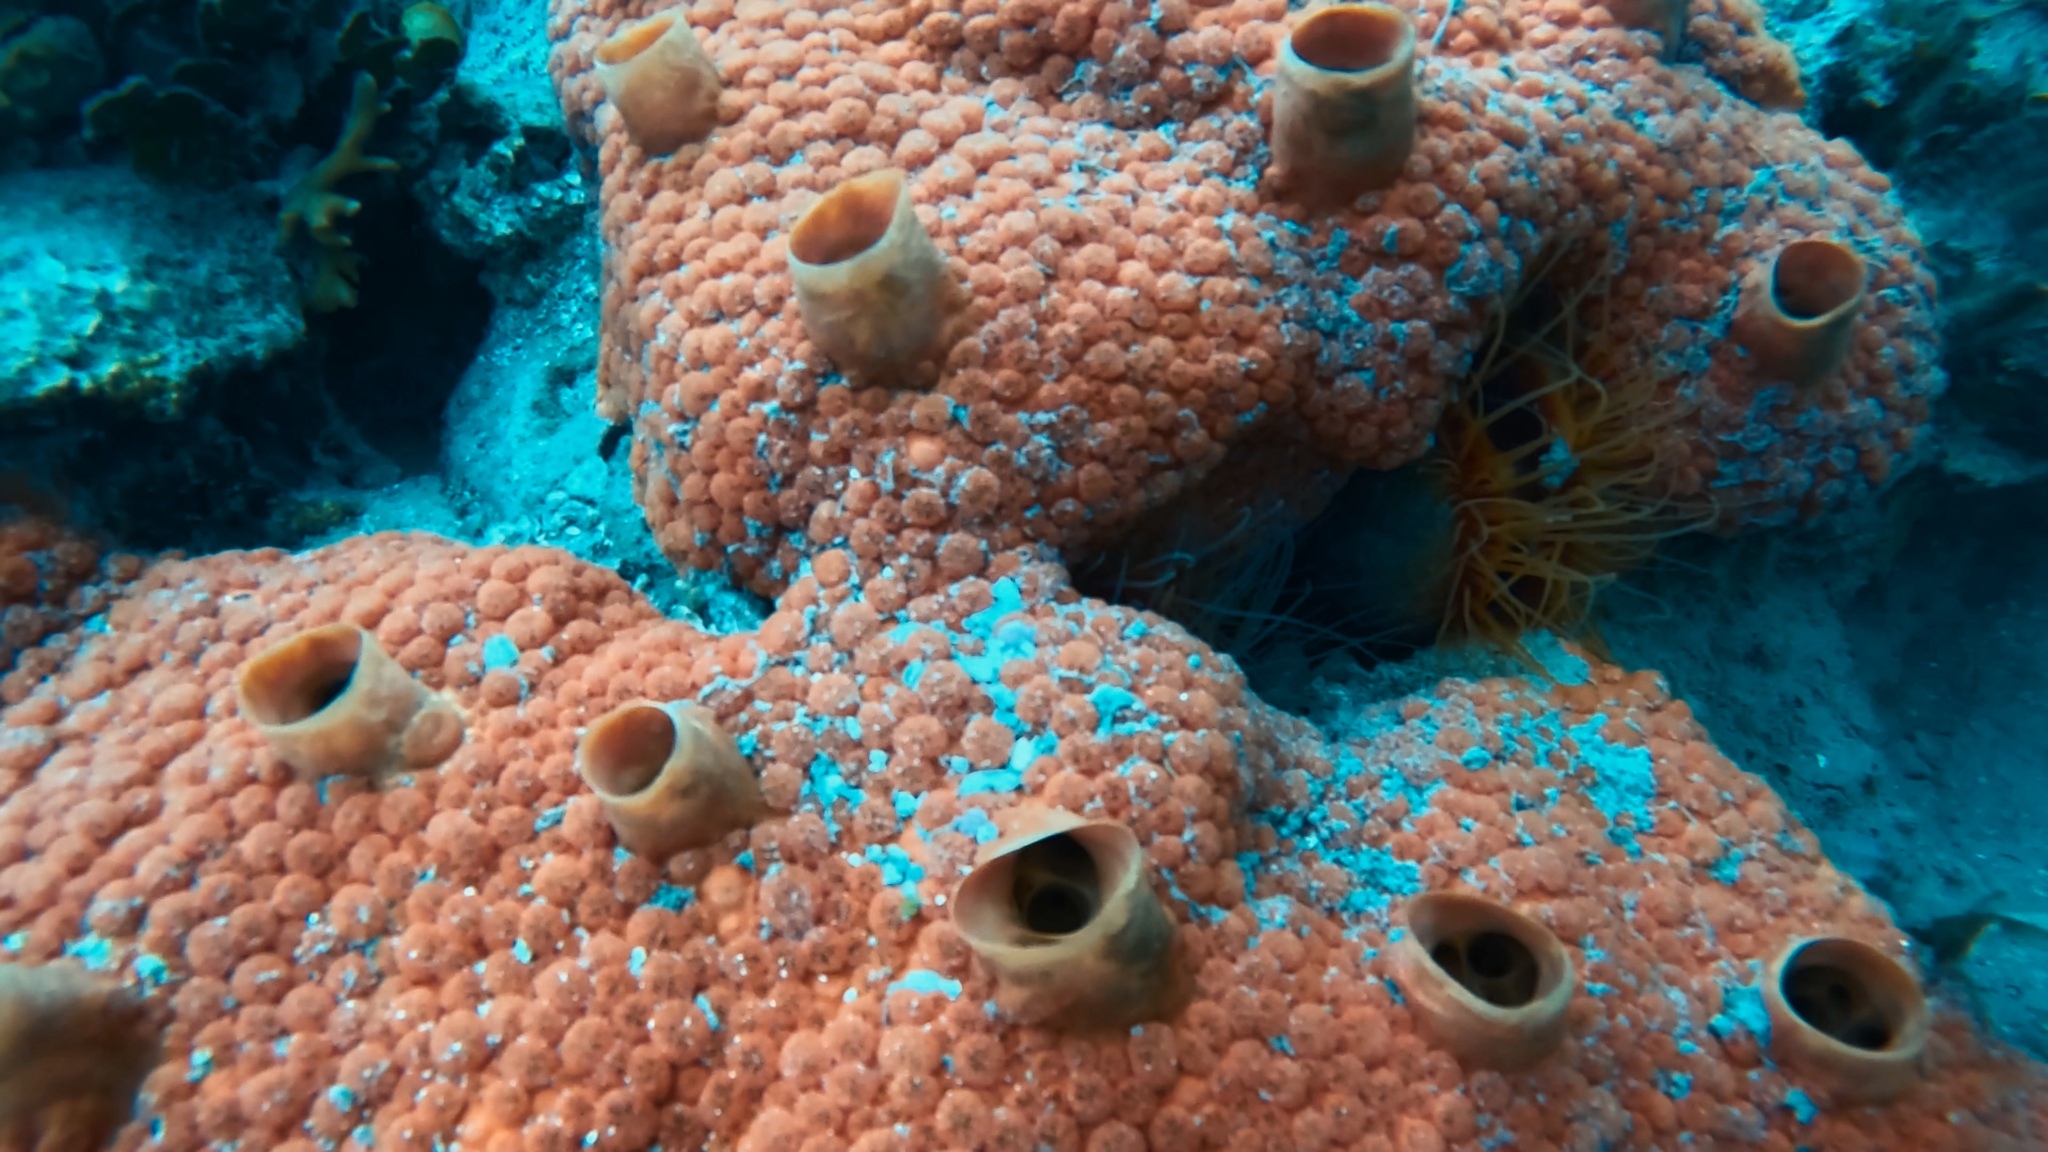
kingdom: Animalia
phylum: Porifera
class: Demospongiae
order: Clionaida
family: Clionaidae
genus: Cliothosa
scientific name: Cliothosa delitrix
